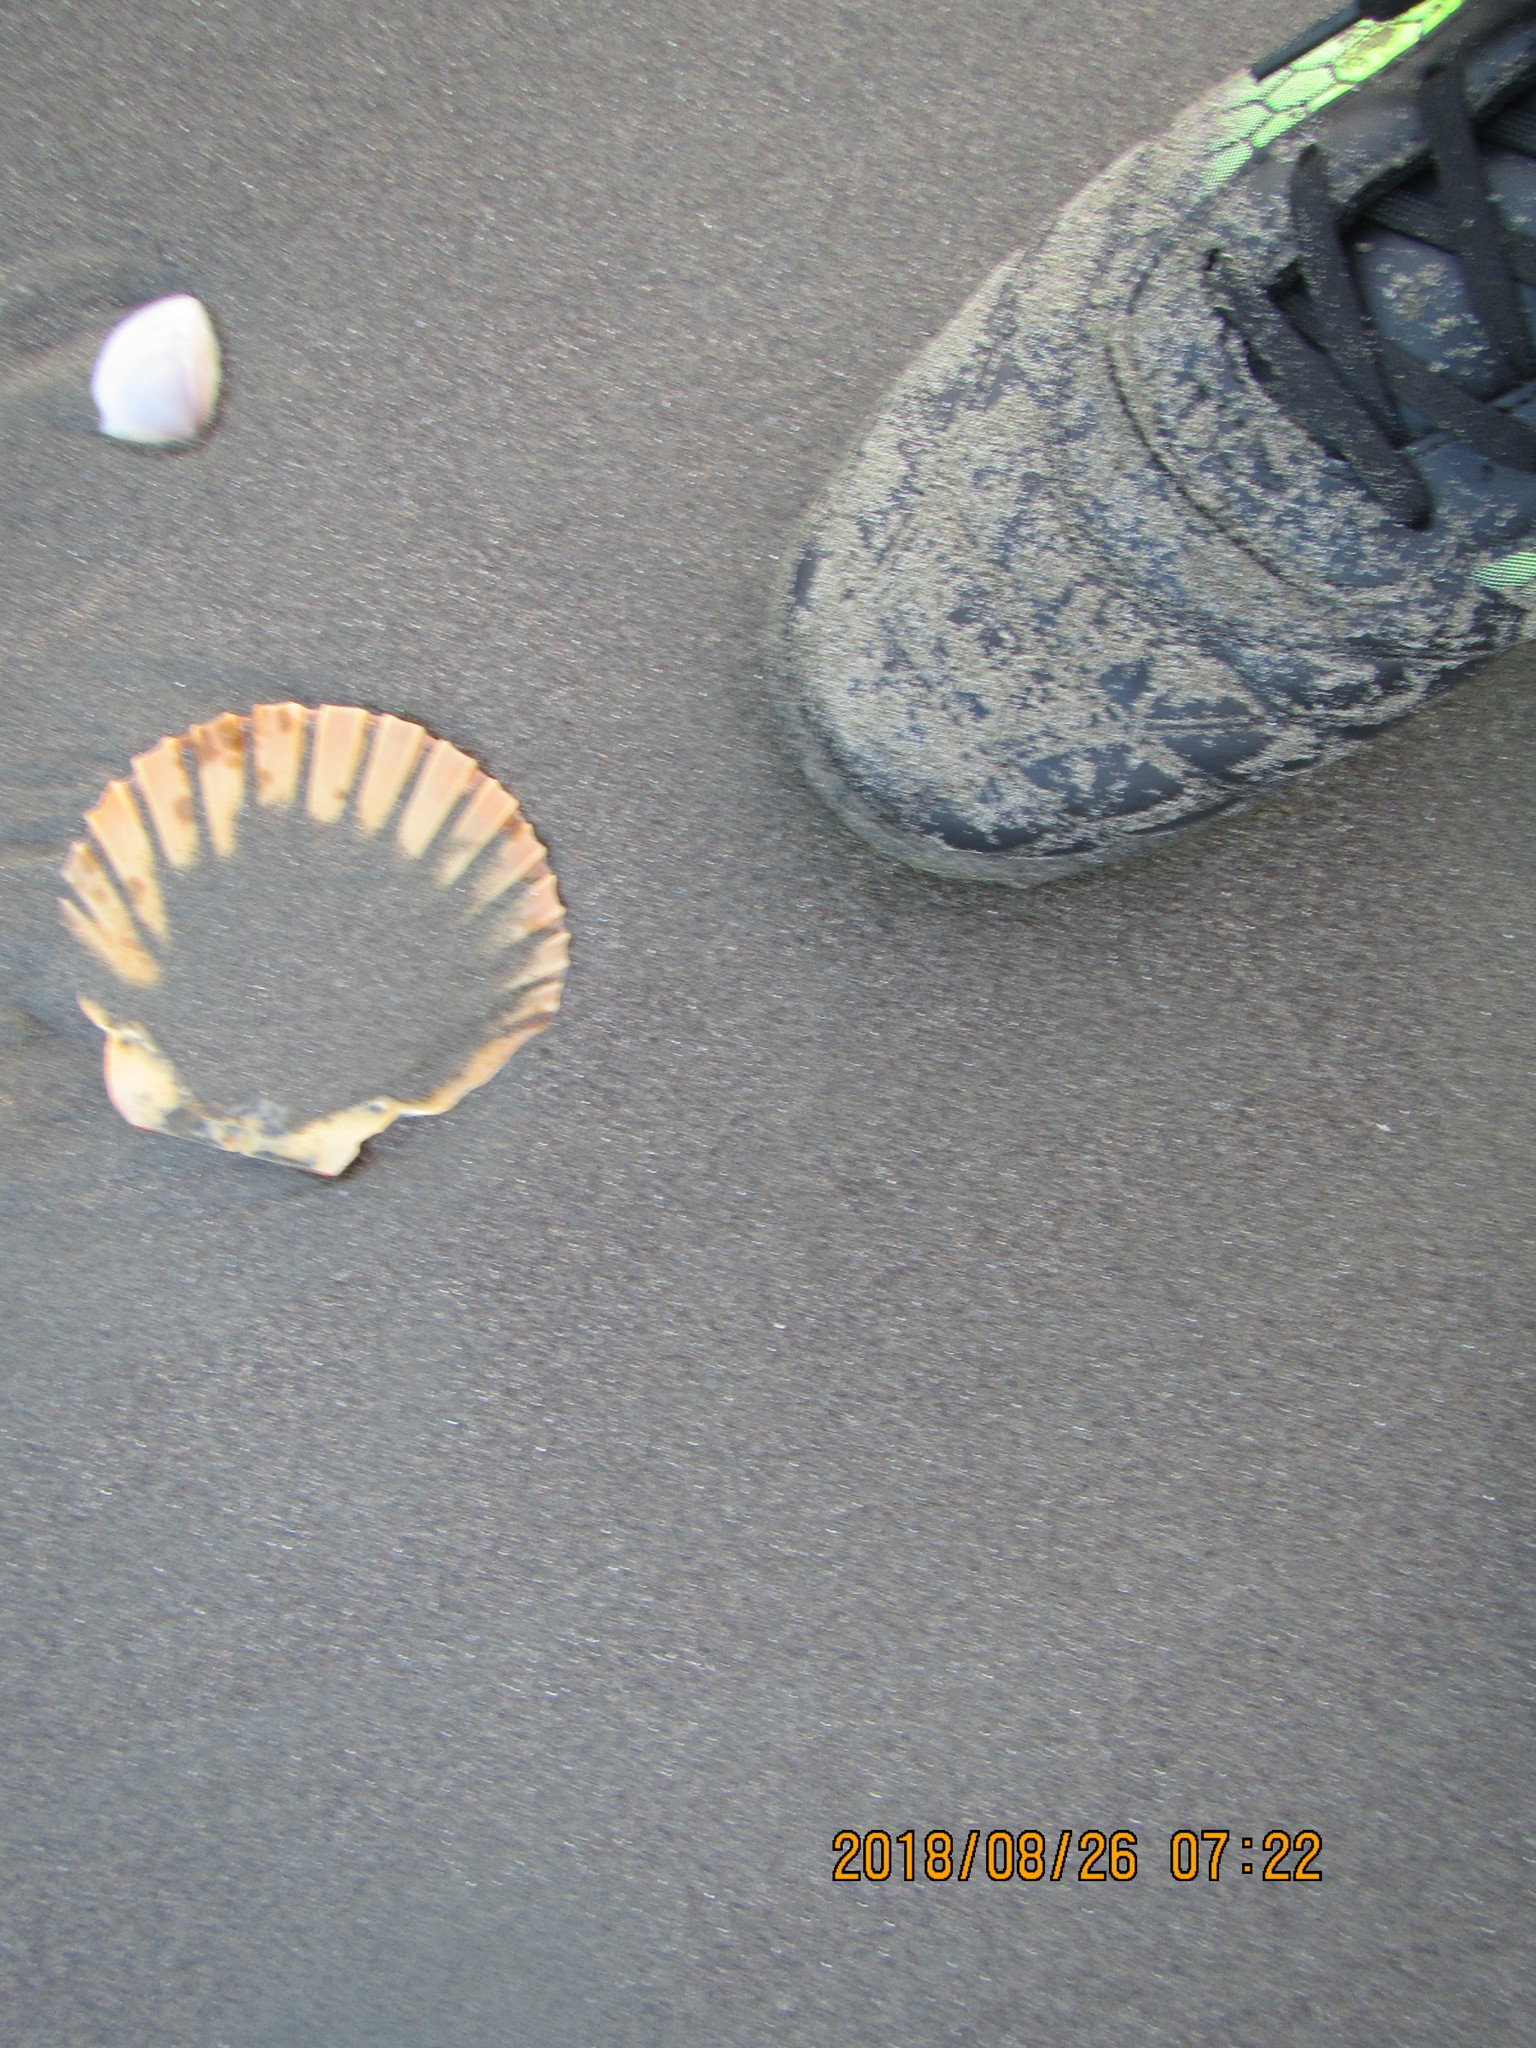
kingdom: Animalia
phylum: Mollusca
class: Bivalvia
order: Pectinida
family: Pectinidae
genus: Pecten
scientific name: Pecten novaezelandiae
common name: New zealand scallop
